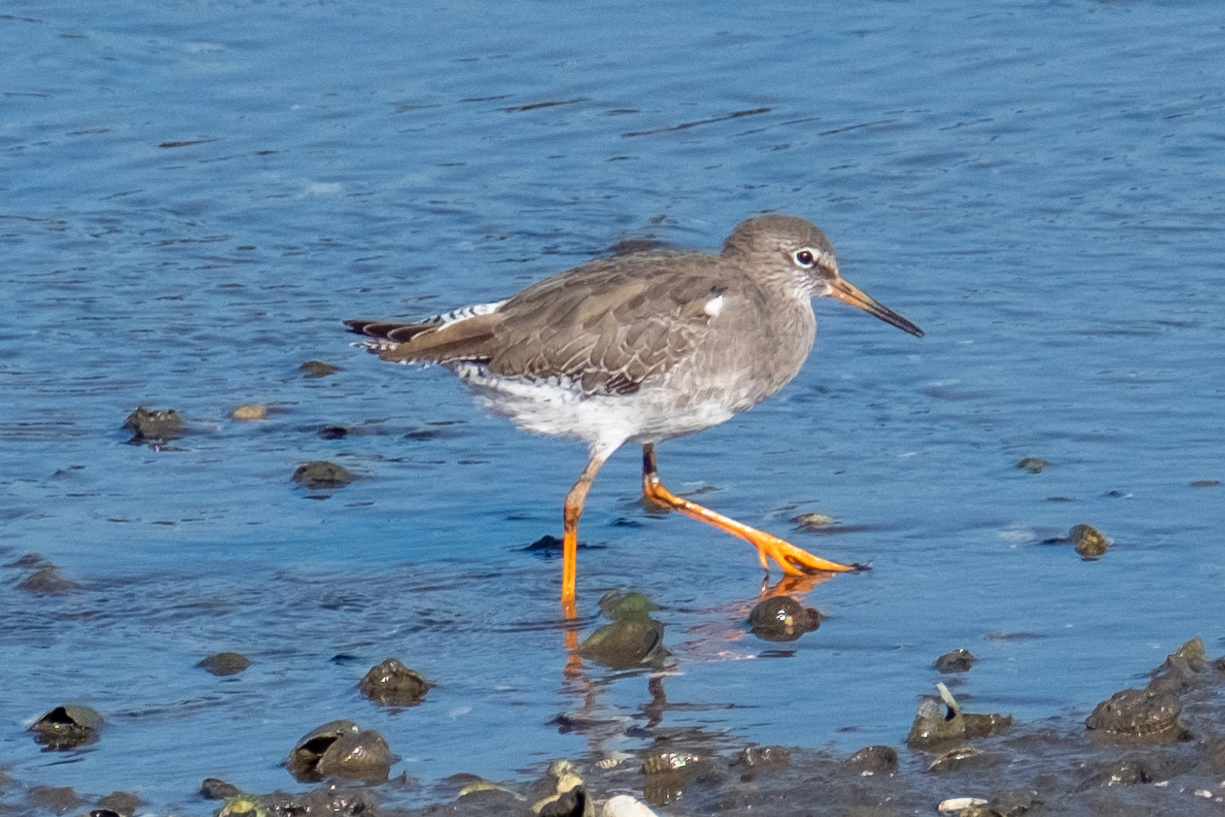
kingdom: Animalia
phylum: Chordata
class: Aves
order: Charadriiformes
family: Scolopacidae
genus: Tringa
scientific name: Tringa totanus
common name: Common redshank
